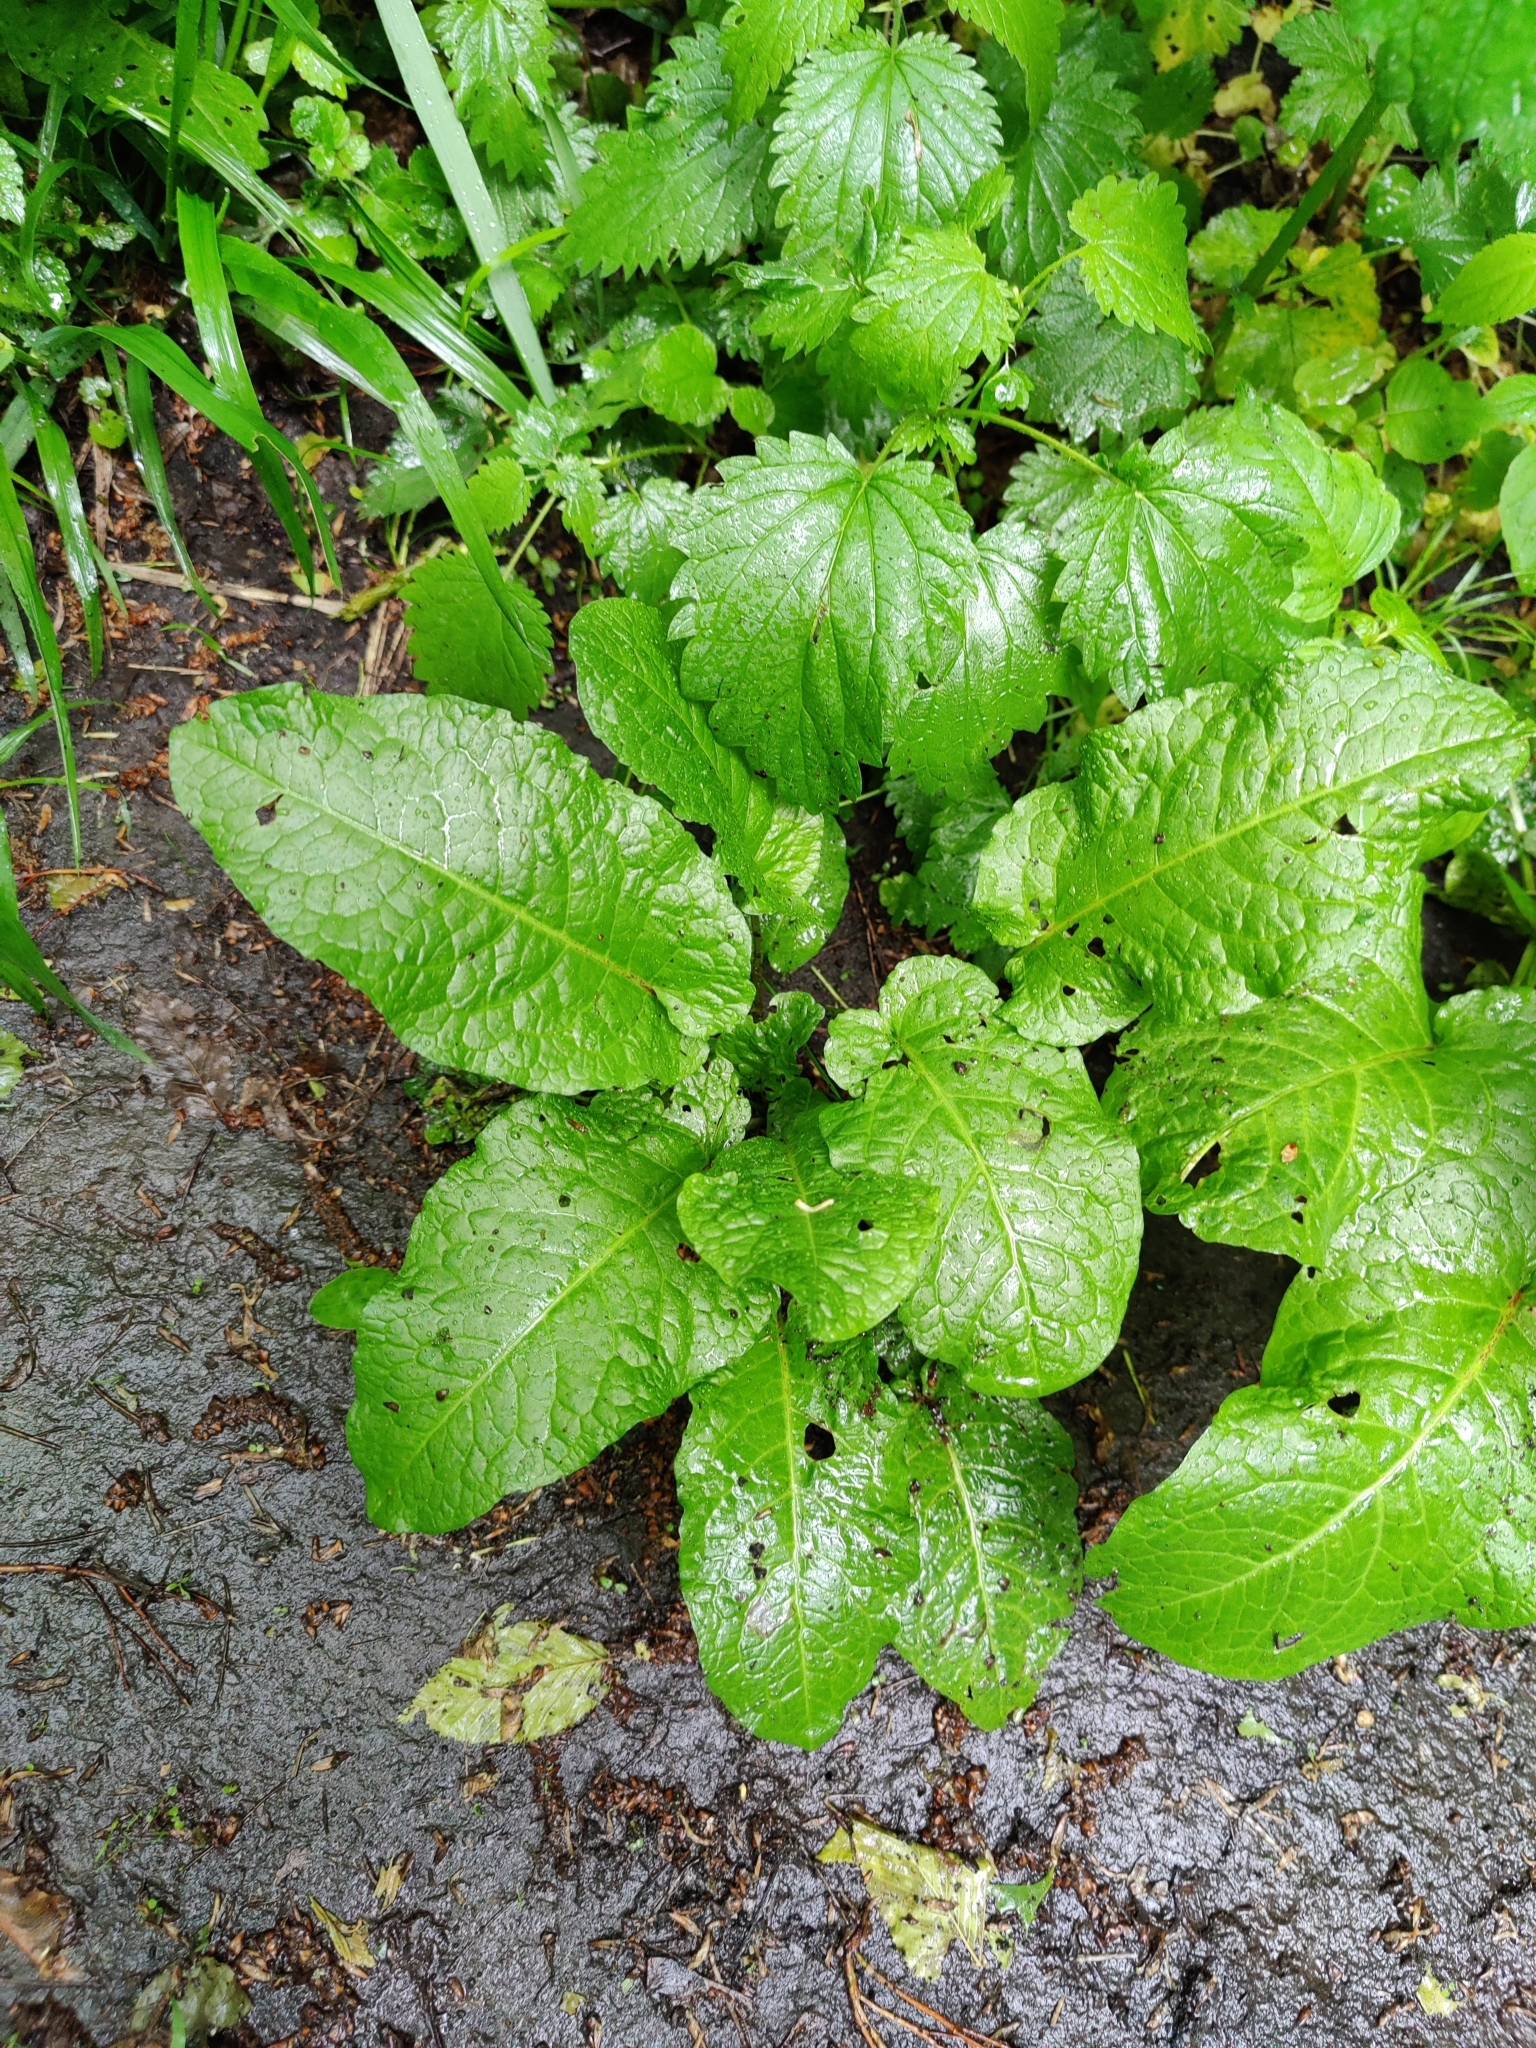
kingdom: Plantae
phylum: Tracheophyta
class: Magnoliopsida
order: Caryophyllales
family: Polygonaceae
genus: Rumex
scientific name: Rumex obtusifolius
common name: Bitter dock
